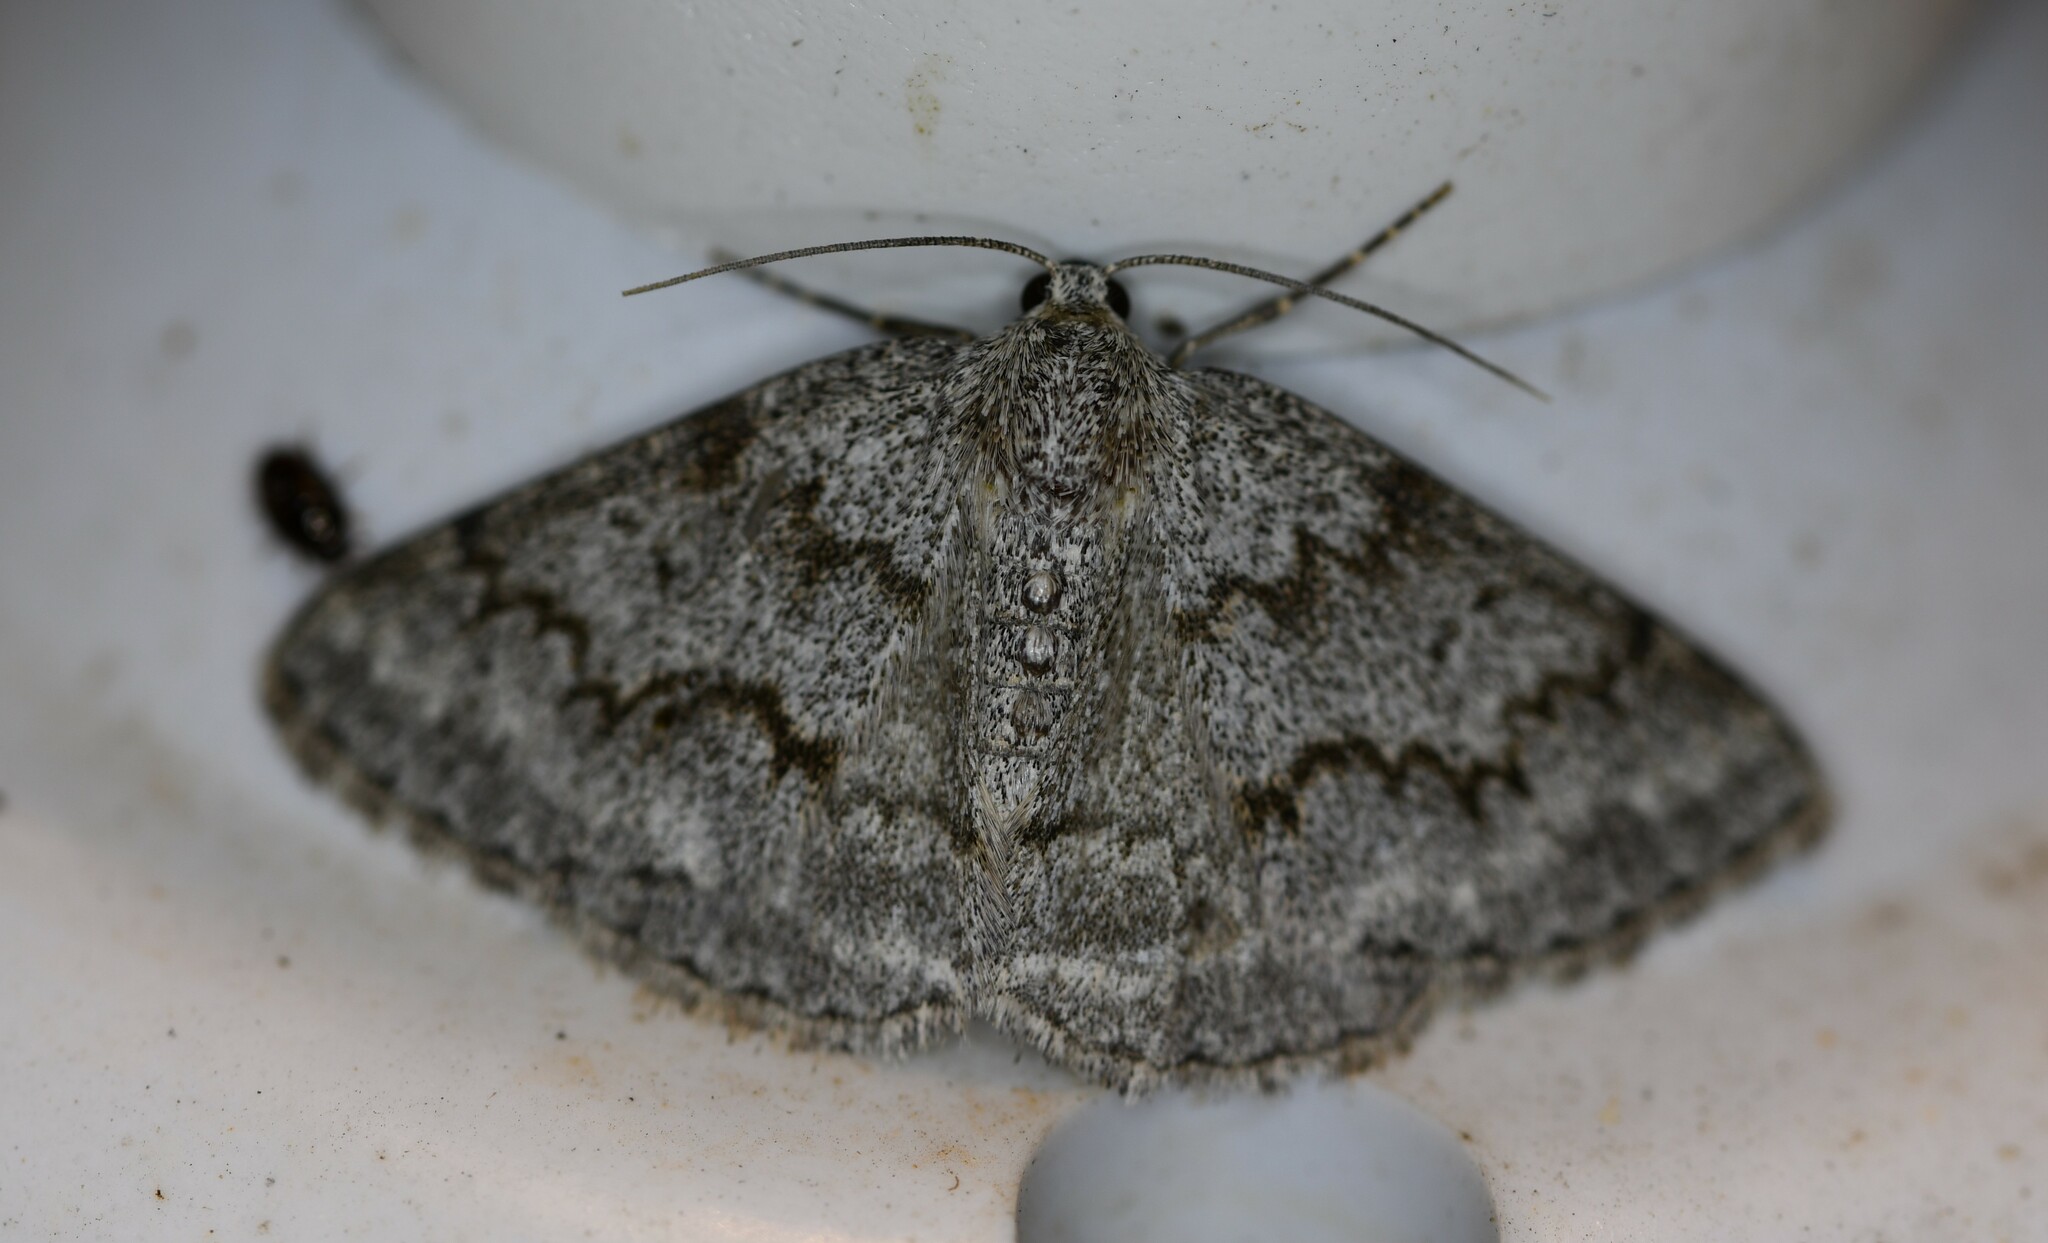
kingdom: Animalia
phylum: Arthropoda
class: Insecta
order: Lepidoptera
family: Geometridae
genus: Pseudoterpna
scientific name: Pseudoterpna coronillaria
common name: Jersey emerald
